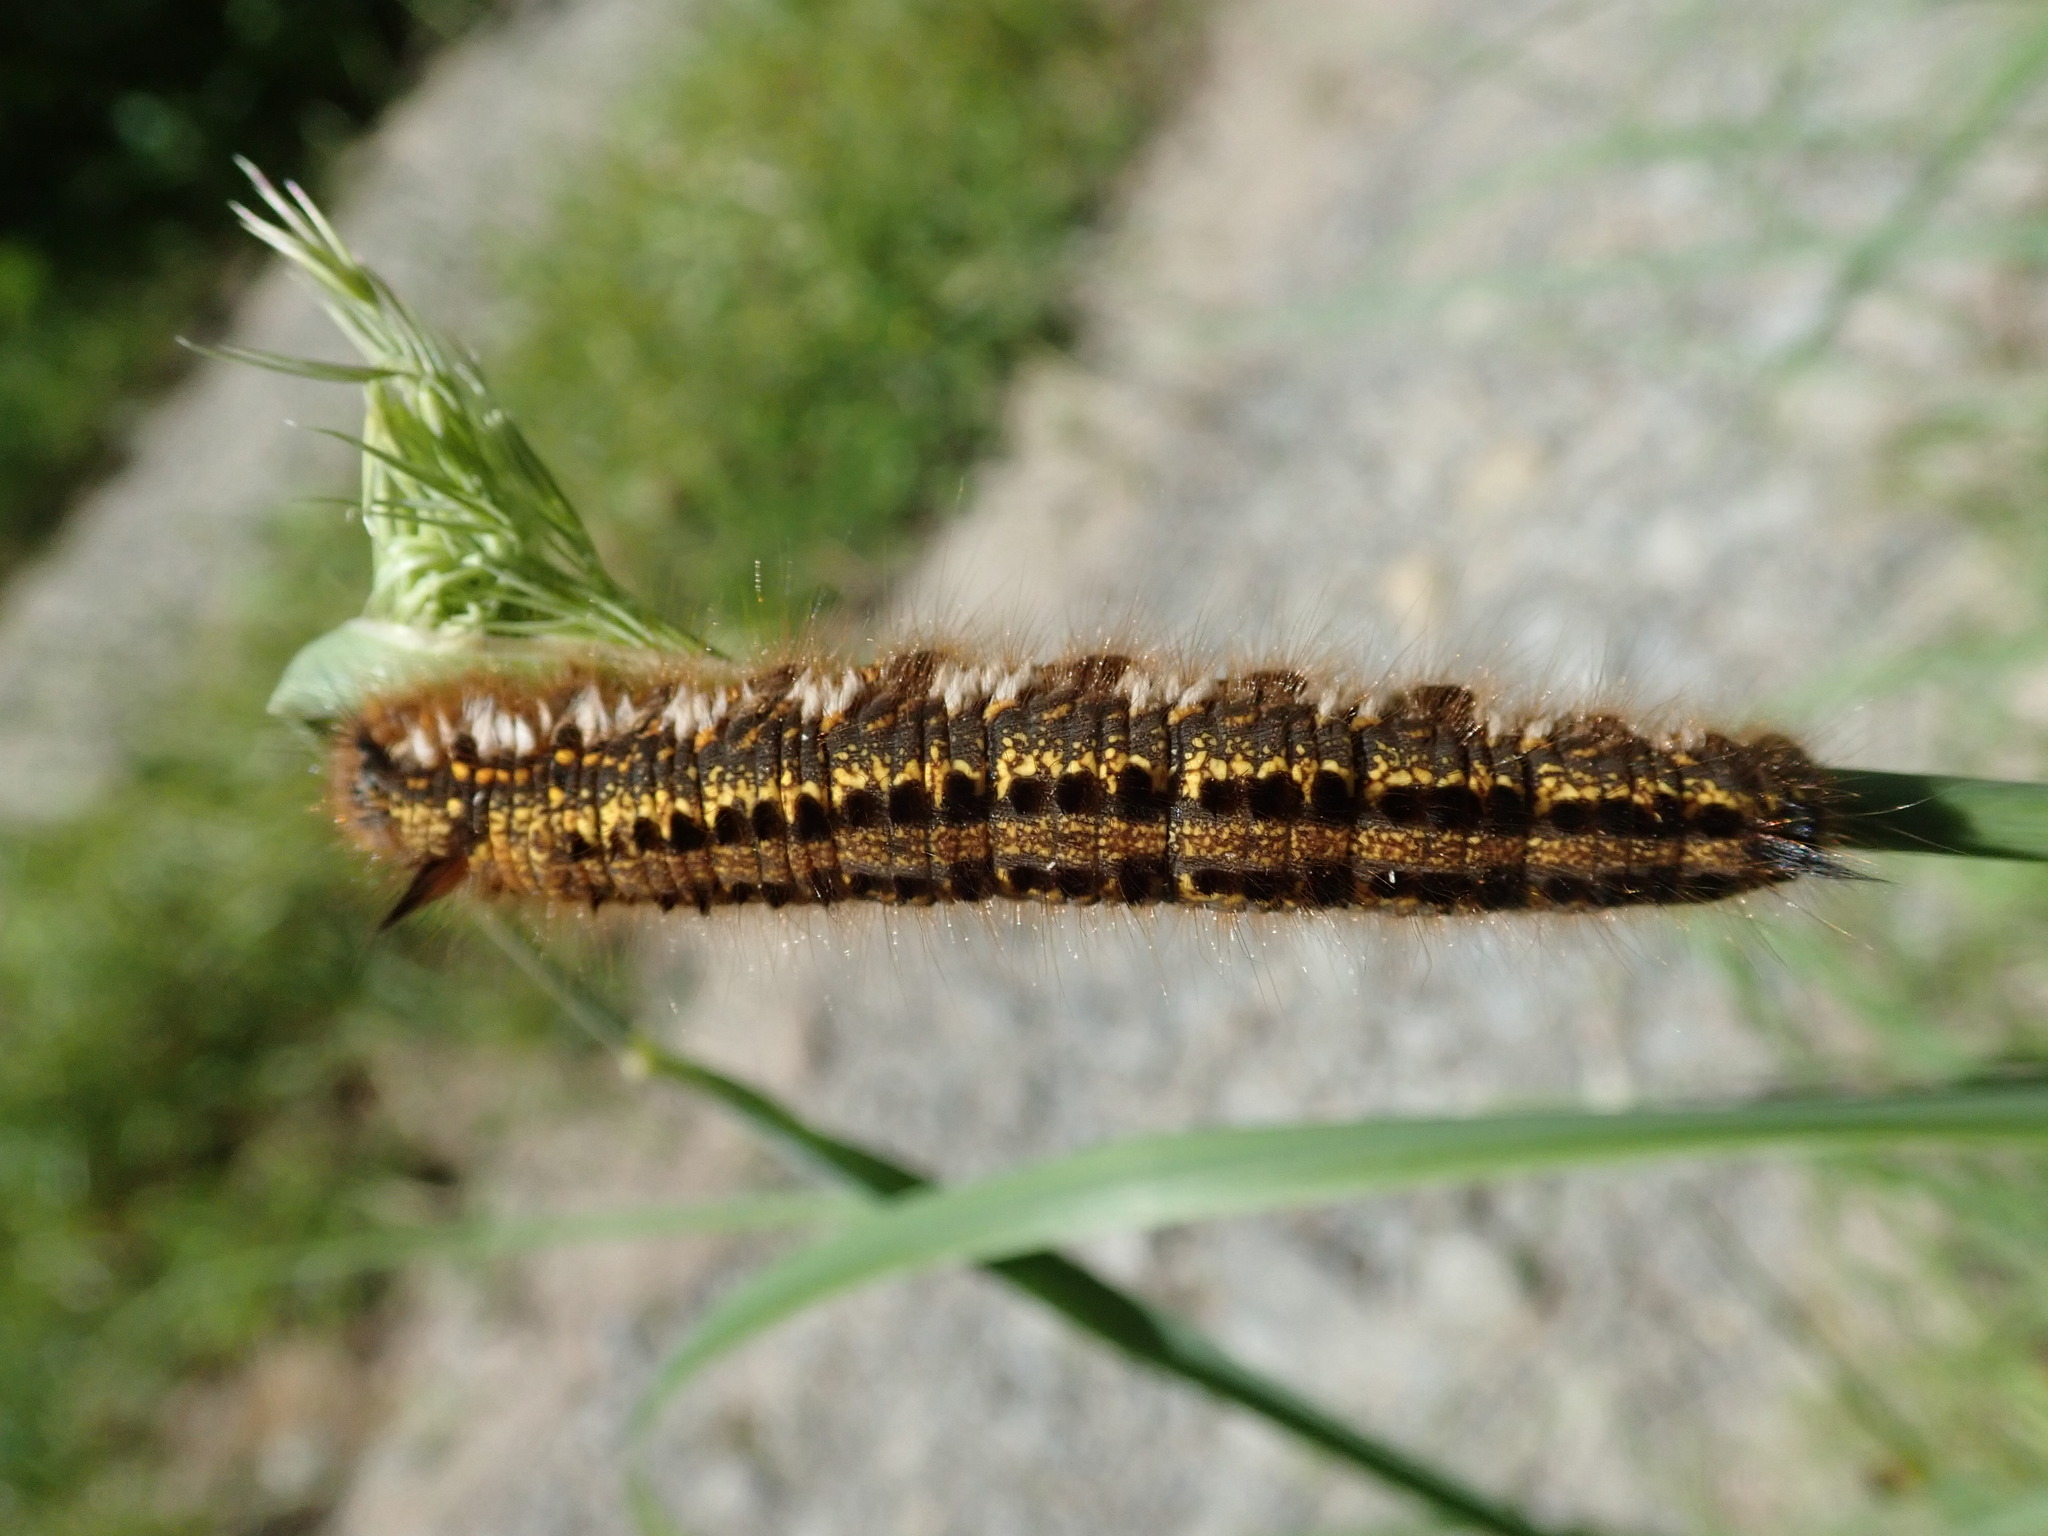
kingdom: Animalia
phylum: Arthropoda
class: Insecta
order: Lepidoptera
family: Lasiocampidae
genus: Euthrix
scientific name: Euthrix potatoria
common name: Drinker
